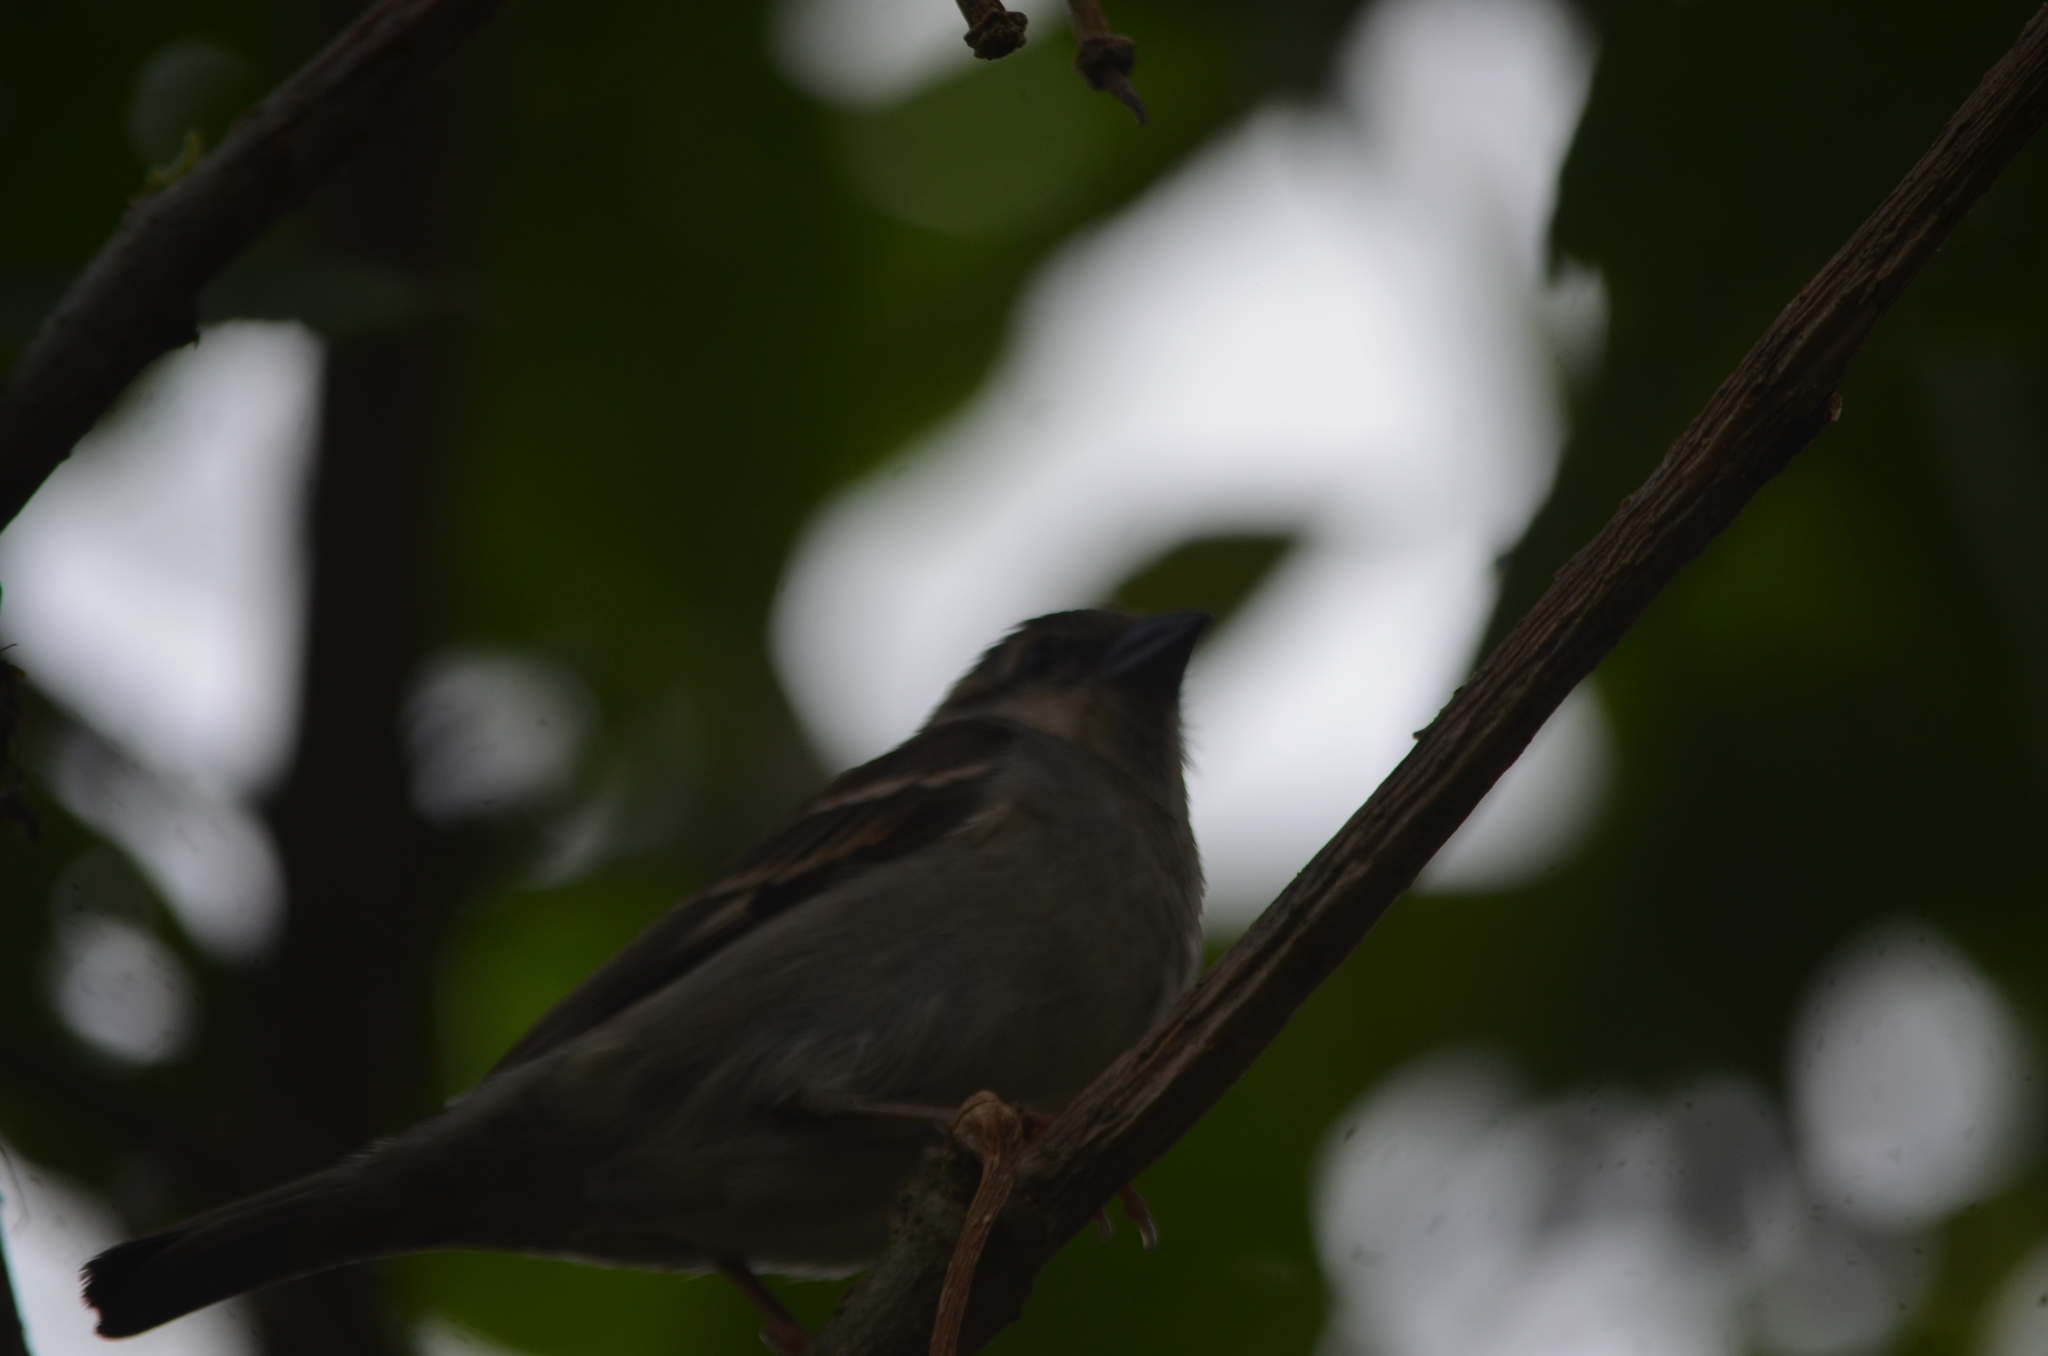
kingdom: Animalia
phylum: Chordata
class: Aves
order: Passeriformes
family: Passeridae
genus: Passer
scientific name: Passer cinnamomeus
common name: Russet sparrow
